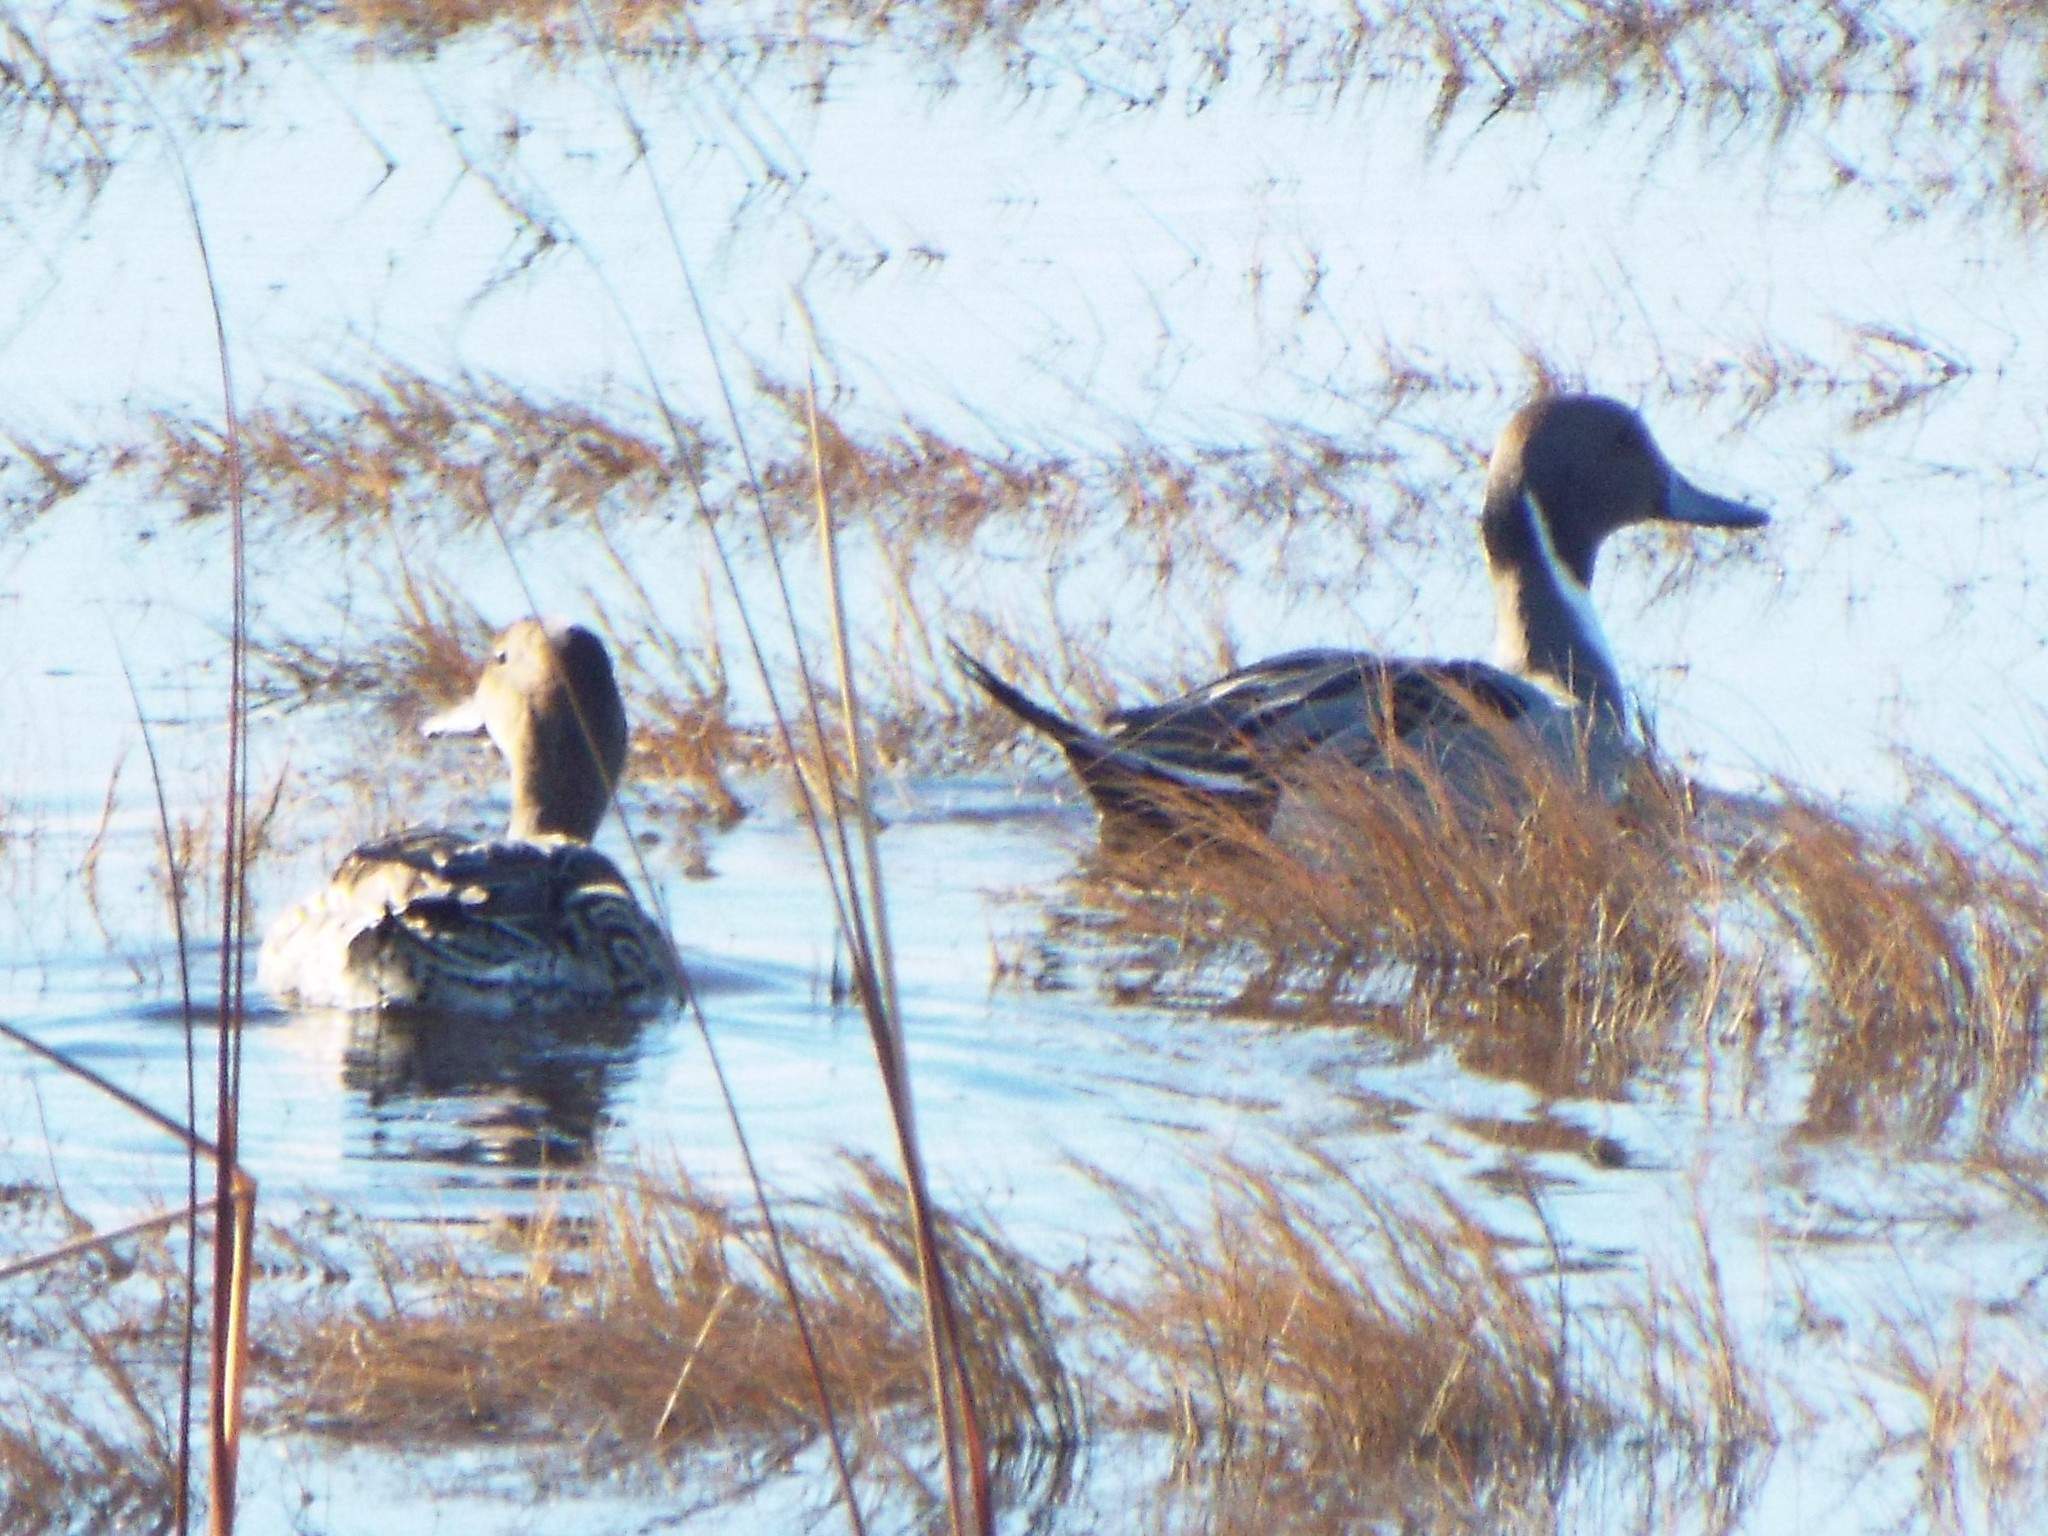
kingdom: Animalia
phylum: Chordata
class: Aves
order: Anseriformes
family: Anatidae
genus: Anas
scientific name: Anas acuta
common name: Northern pintail
